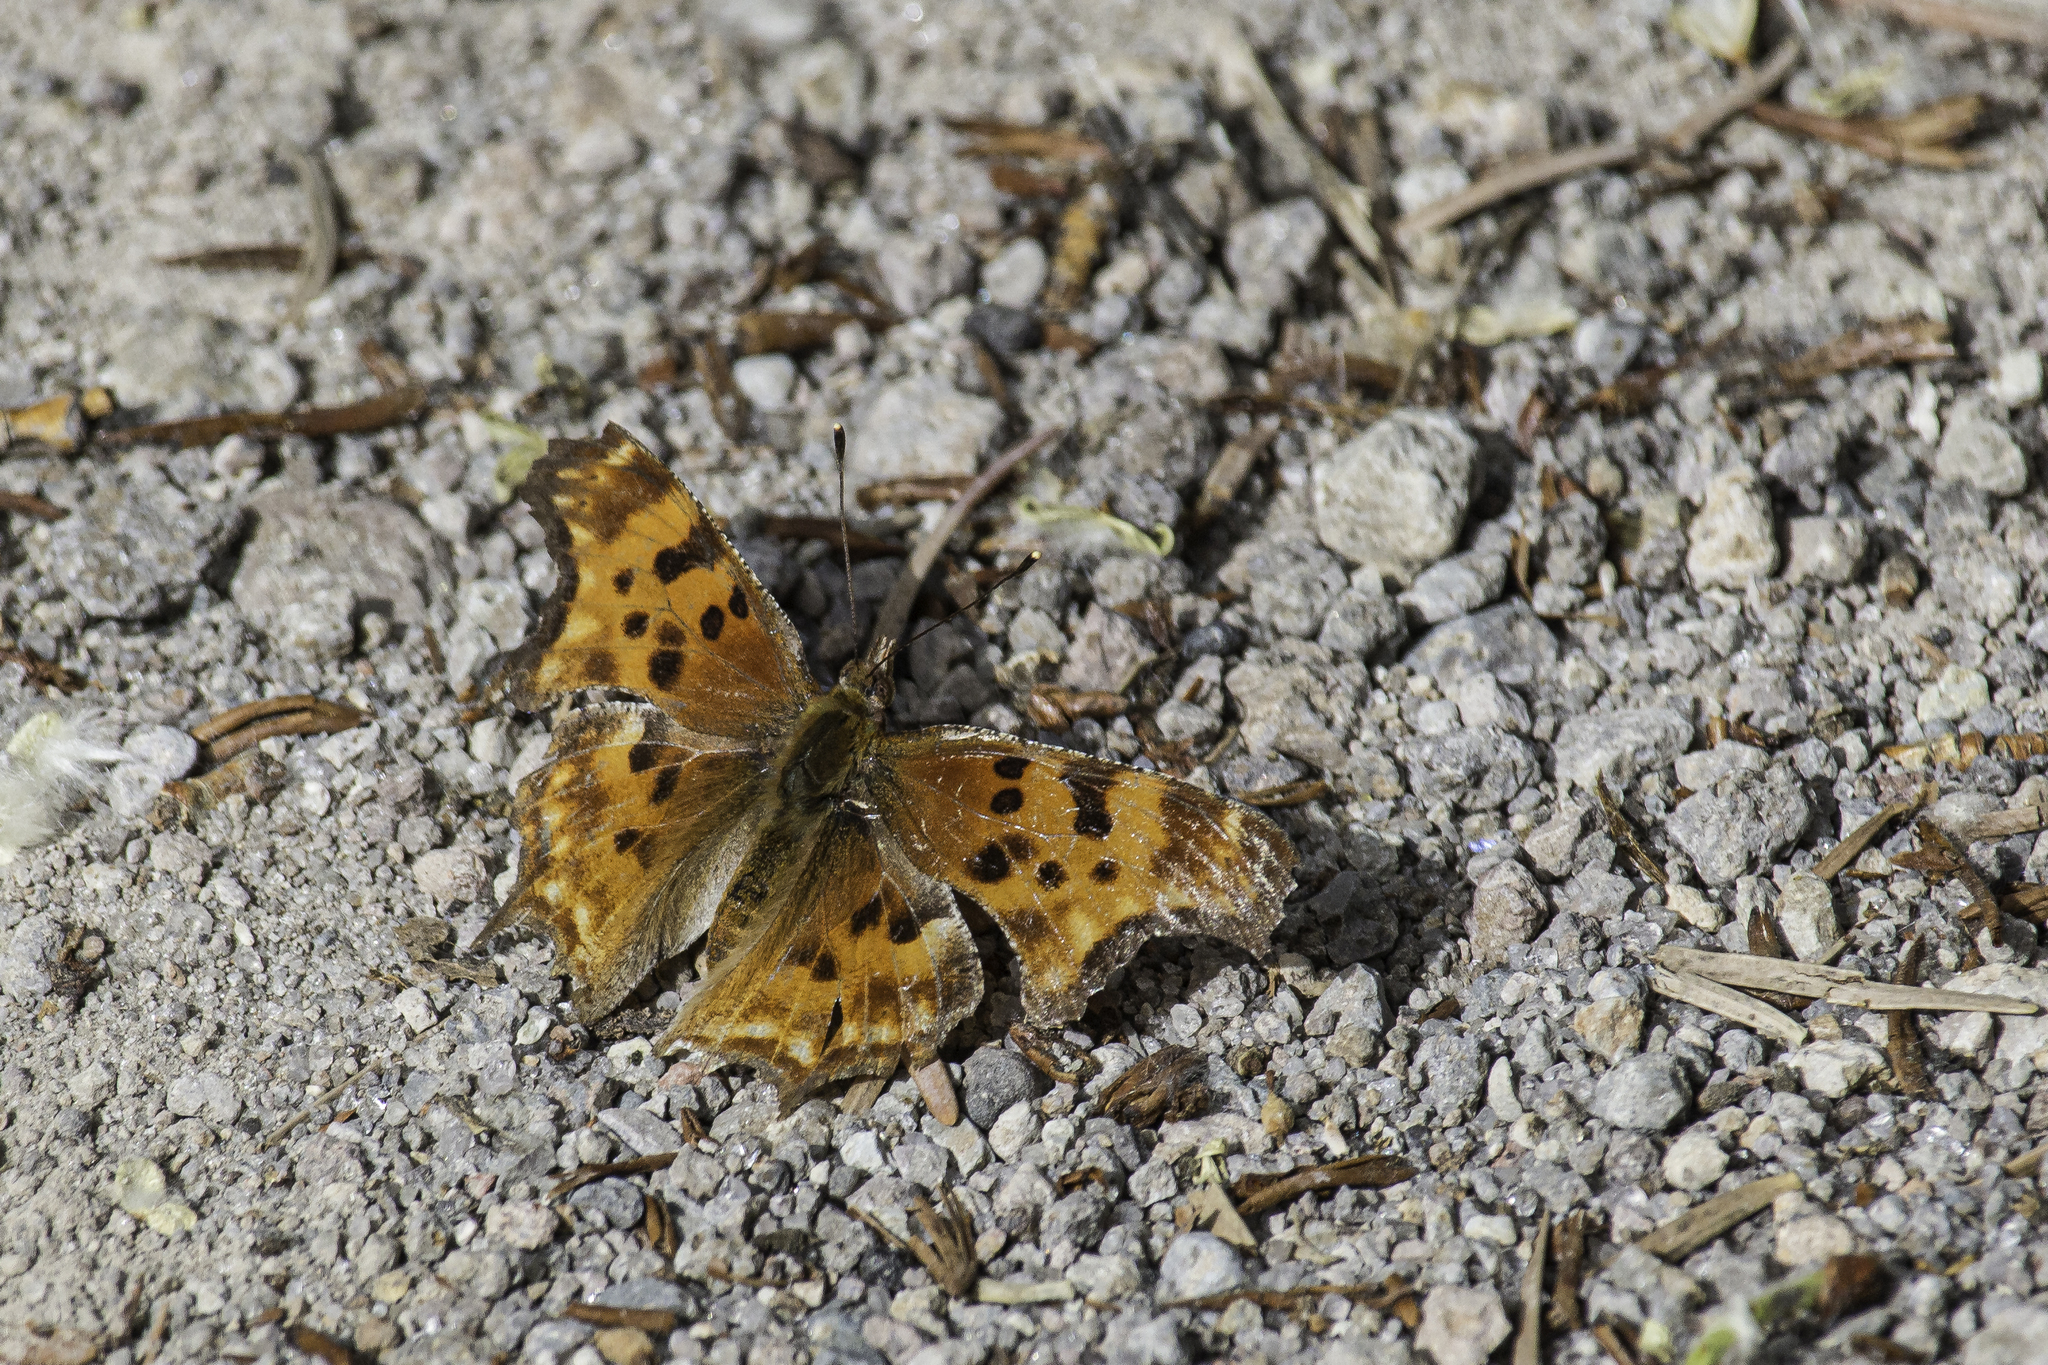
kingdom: Animalia
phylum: Arthropoda
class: Insecta
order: Lepidoptera
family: Nymphalidae
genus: Polygonia
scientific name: Polygonia satyrus
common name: Satyr angle wing
